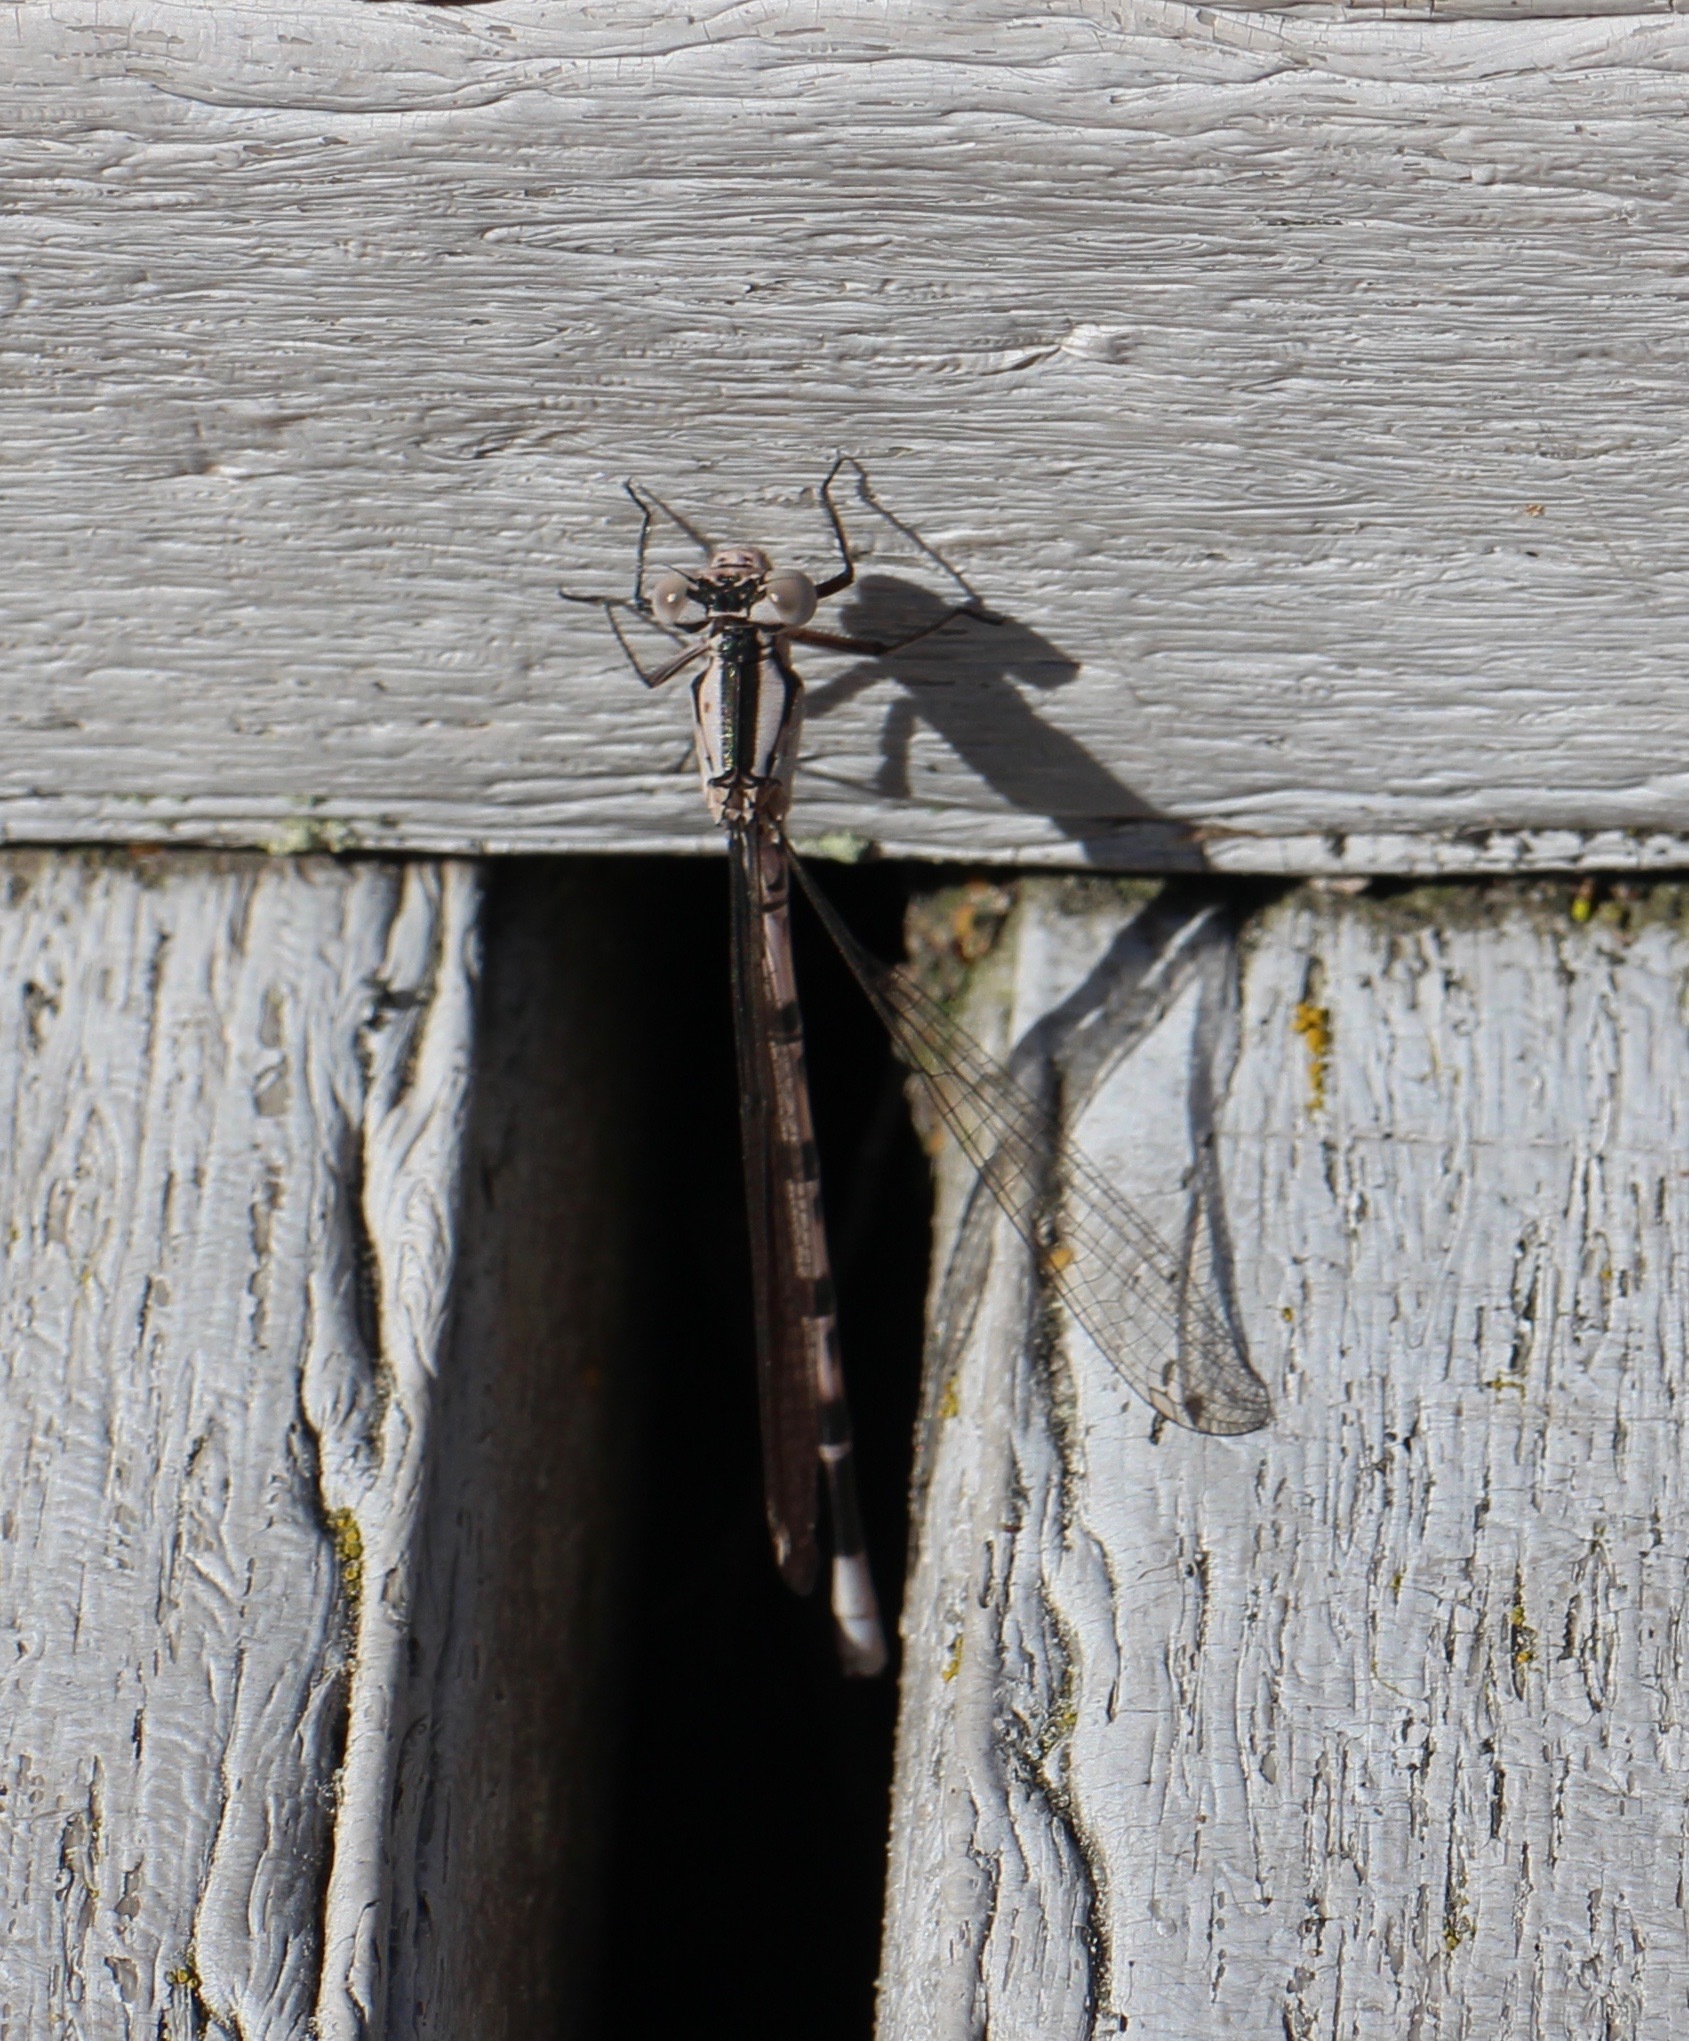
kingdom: Animalia
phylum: Arthropoda
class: Insecta
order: Odonata
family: Coenagrionidae
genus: Argia
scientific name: Argia vivida
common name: Vivid dancer
